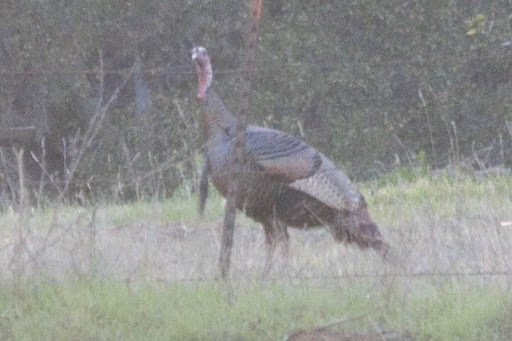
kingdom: Animalia
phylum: Chordata
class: Aves
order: Galliformes
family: Phasianidae
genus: Meleagris
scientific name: Meleagris gallopavo
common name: Wild turkey
